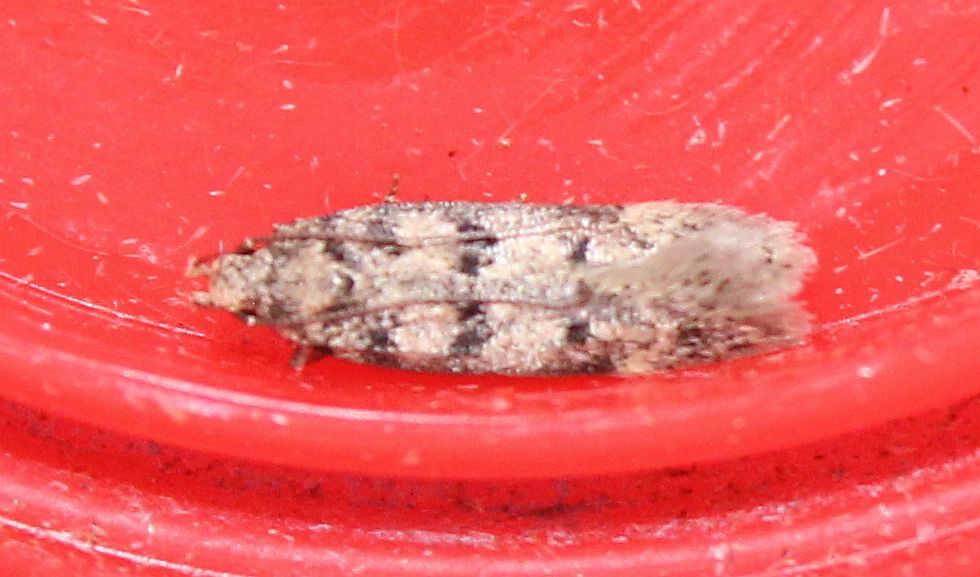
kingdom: Animalia
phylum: Arthropoda
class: Insecta
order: Lepidoptera
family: Gelechiidae
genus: Bryotropha
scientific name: Bryotropha domestica
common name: House groundling
